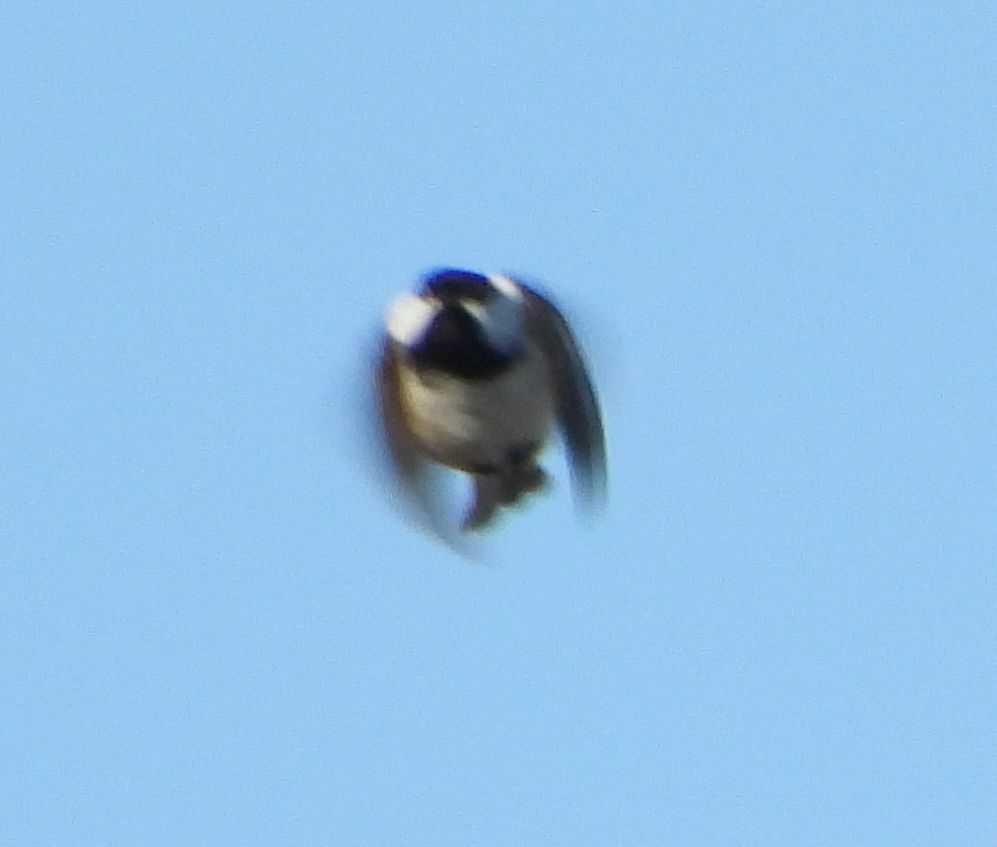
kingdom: Animalia
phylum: Chordata
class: Aves
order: Passeriformes
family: Paridae
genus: Poecile
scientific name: Poecile atricapillus
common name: Black-capped chickadee
